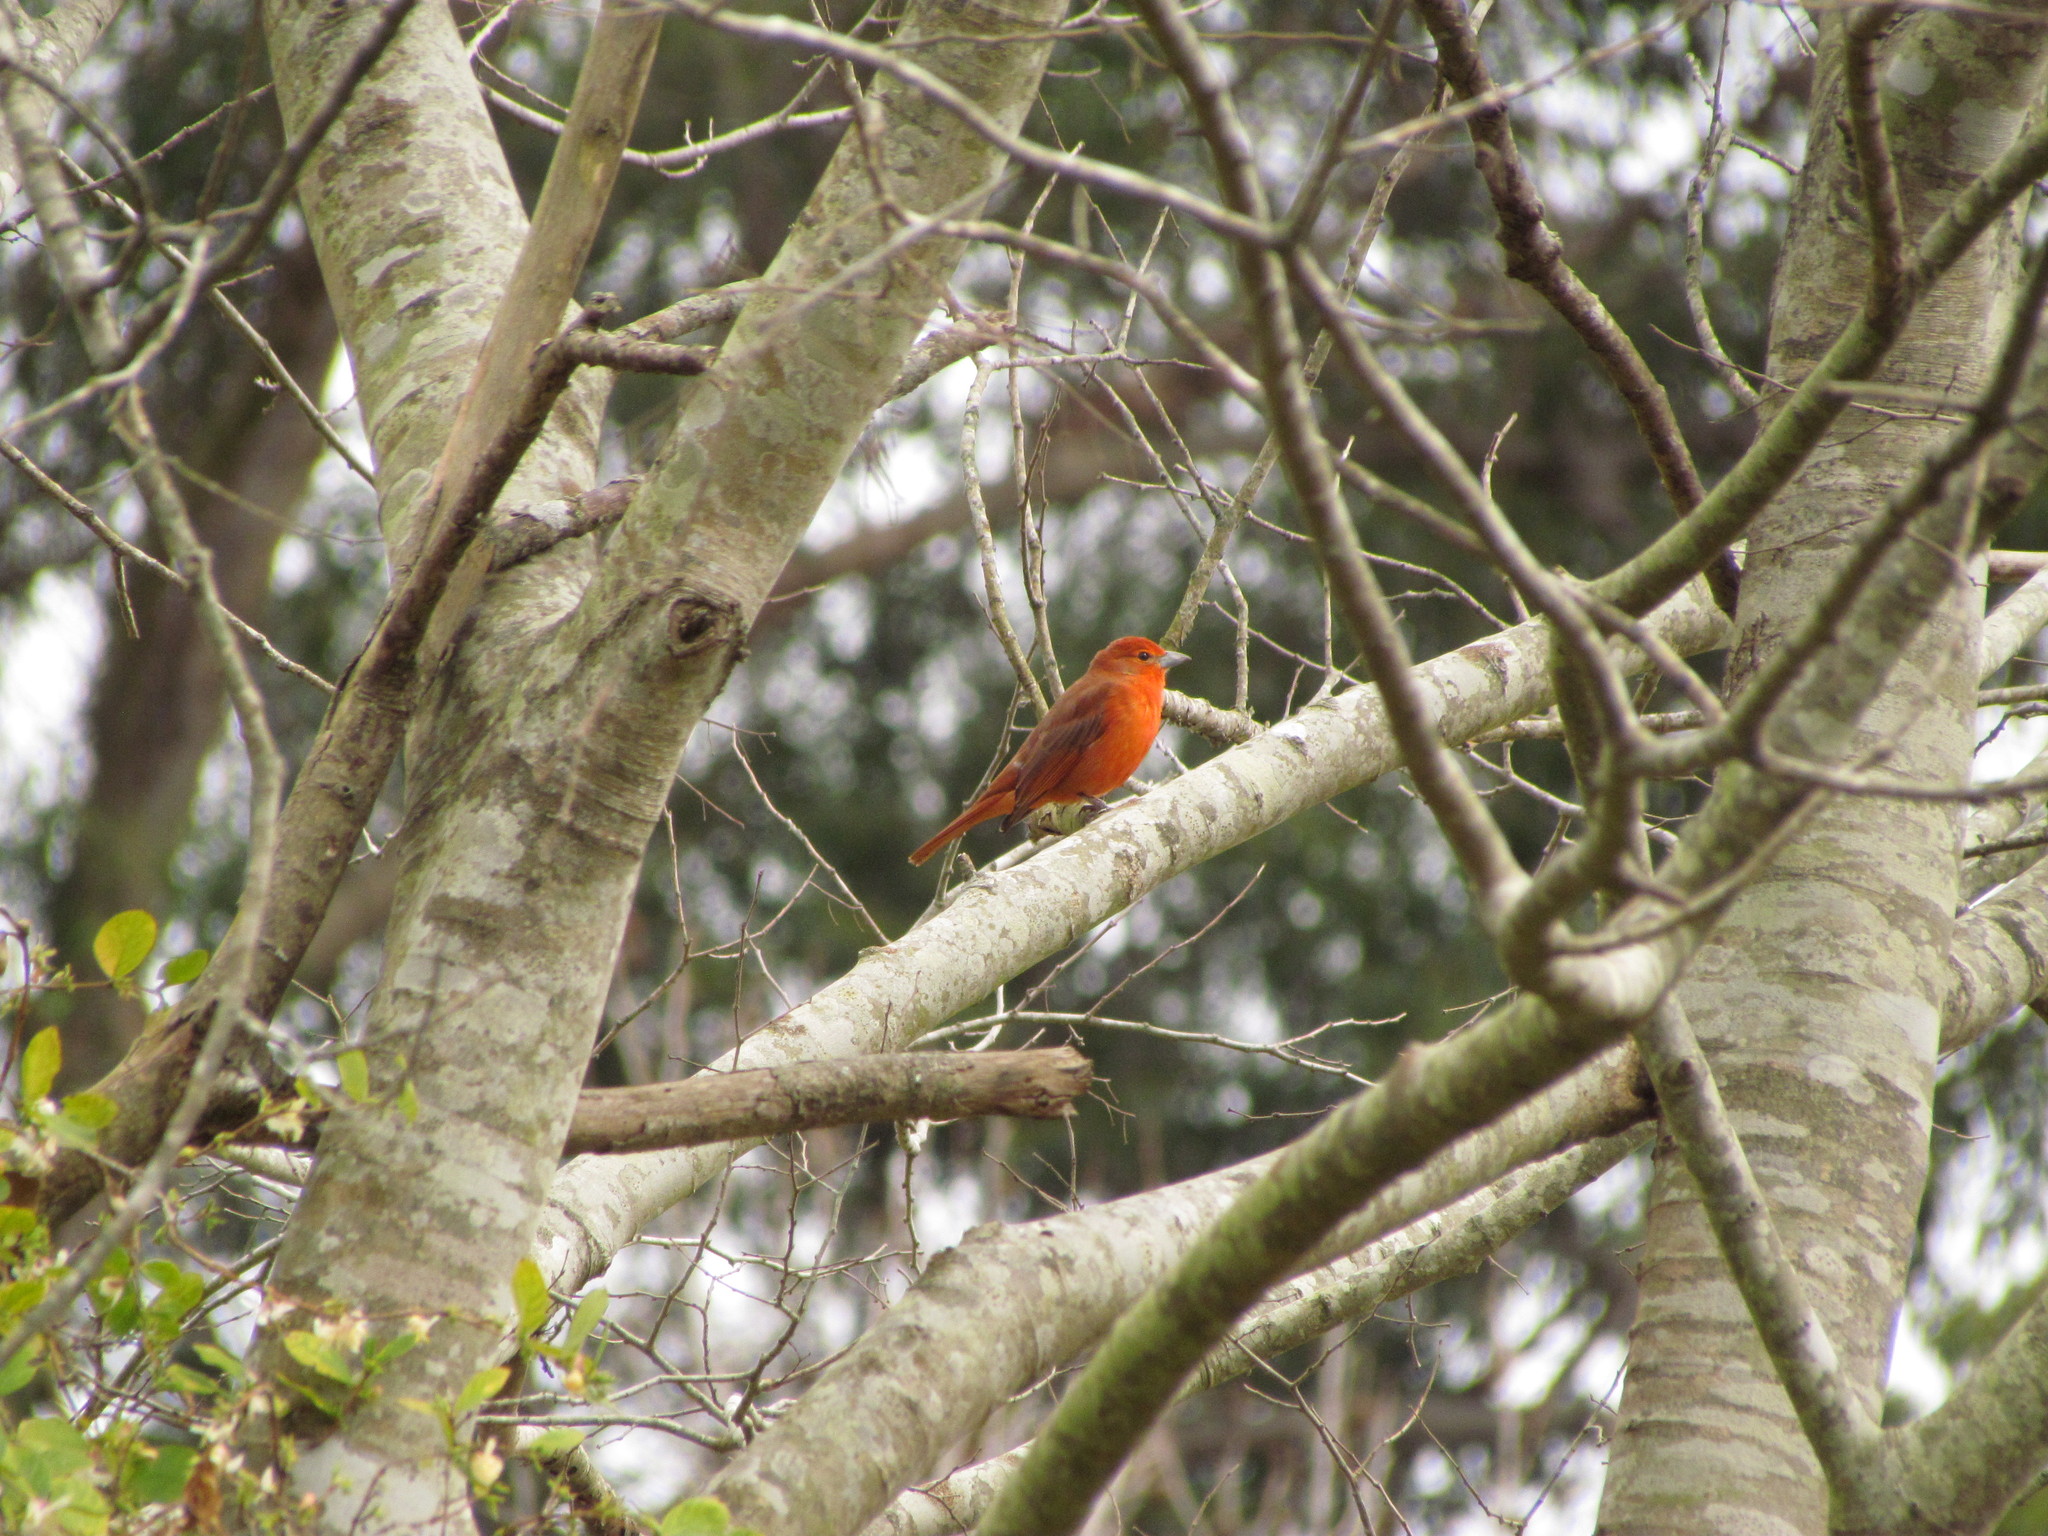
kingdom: Animalia
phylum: Chordata
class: Aves
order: Passeriformes
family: Cardinalidae
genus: Piranga
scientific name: Piranga flava
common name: Red tanager
